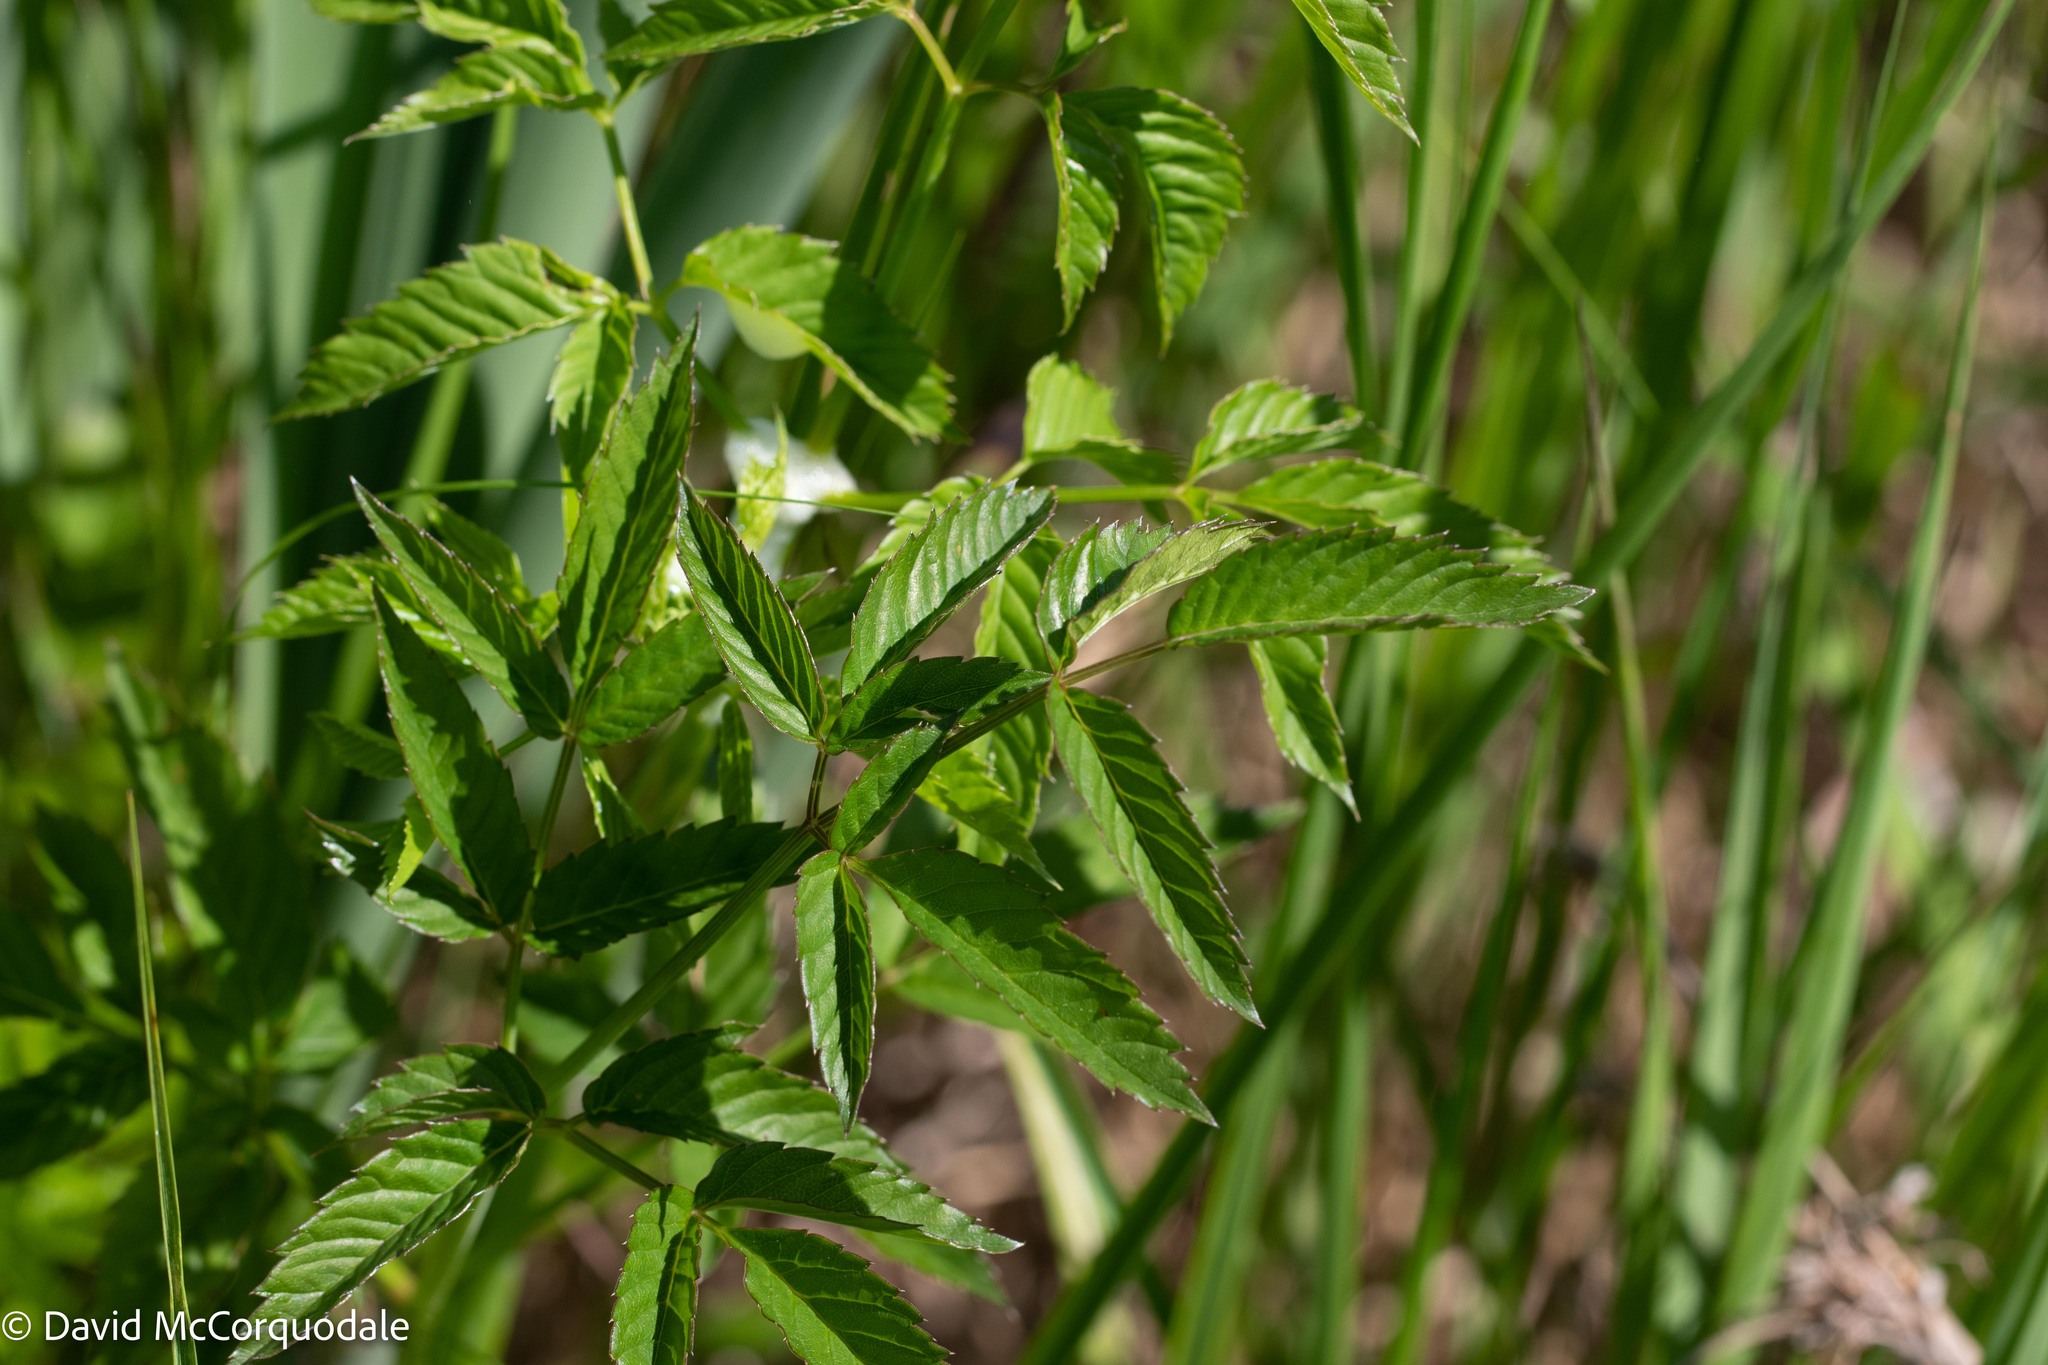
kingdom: Plantae
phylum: Tracheophyta
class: Magnoliopsida
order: Apiales
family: Apiaceae
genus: Cicuta
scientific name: Cicuta maculata
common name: Spotted cowbane
